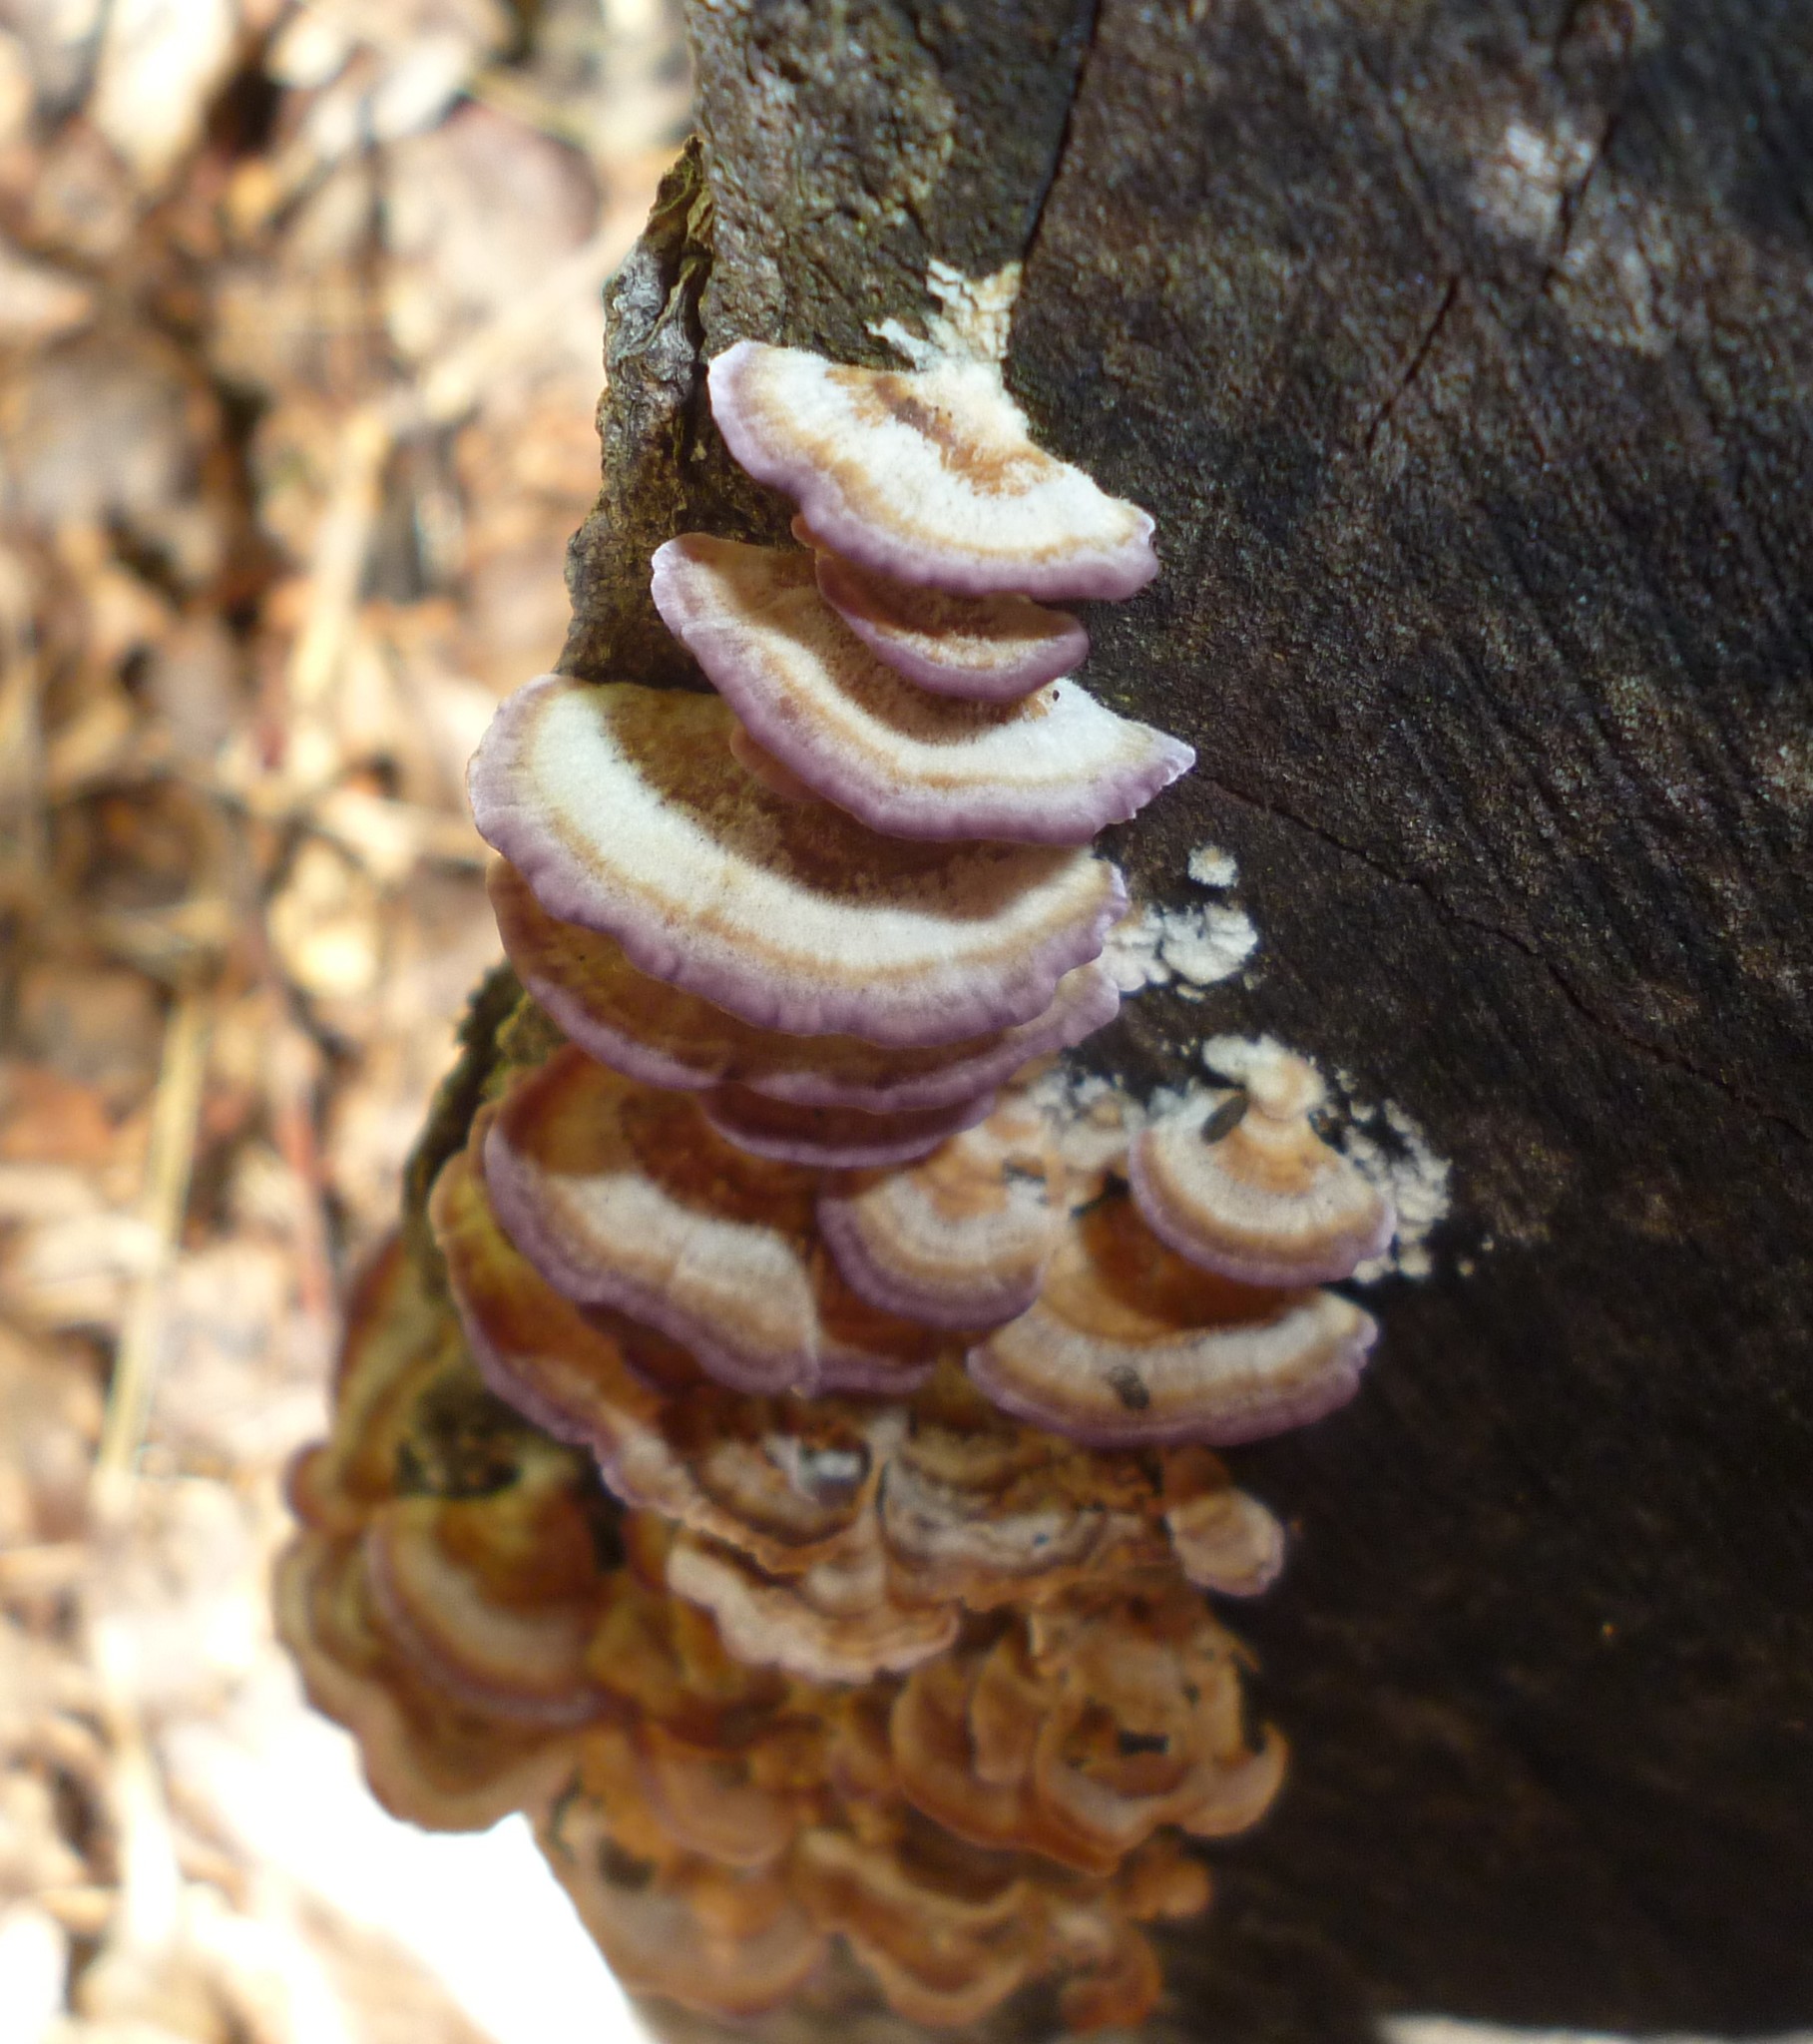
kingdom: Fungi
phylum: Basidiomycota
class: Agaricomycetes
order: Hymenochaetales
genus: Trichaptum
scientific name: Trichaptum biforme
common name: Violet-toothed polypore
